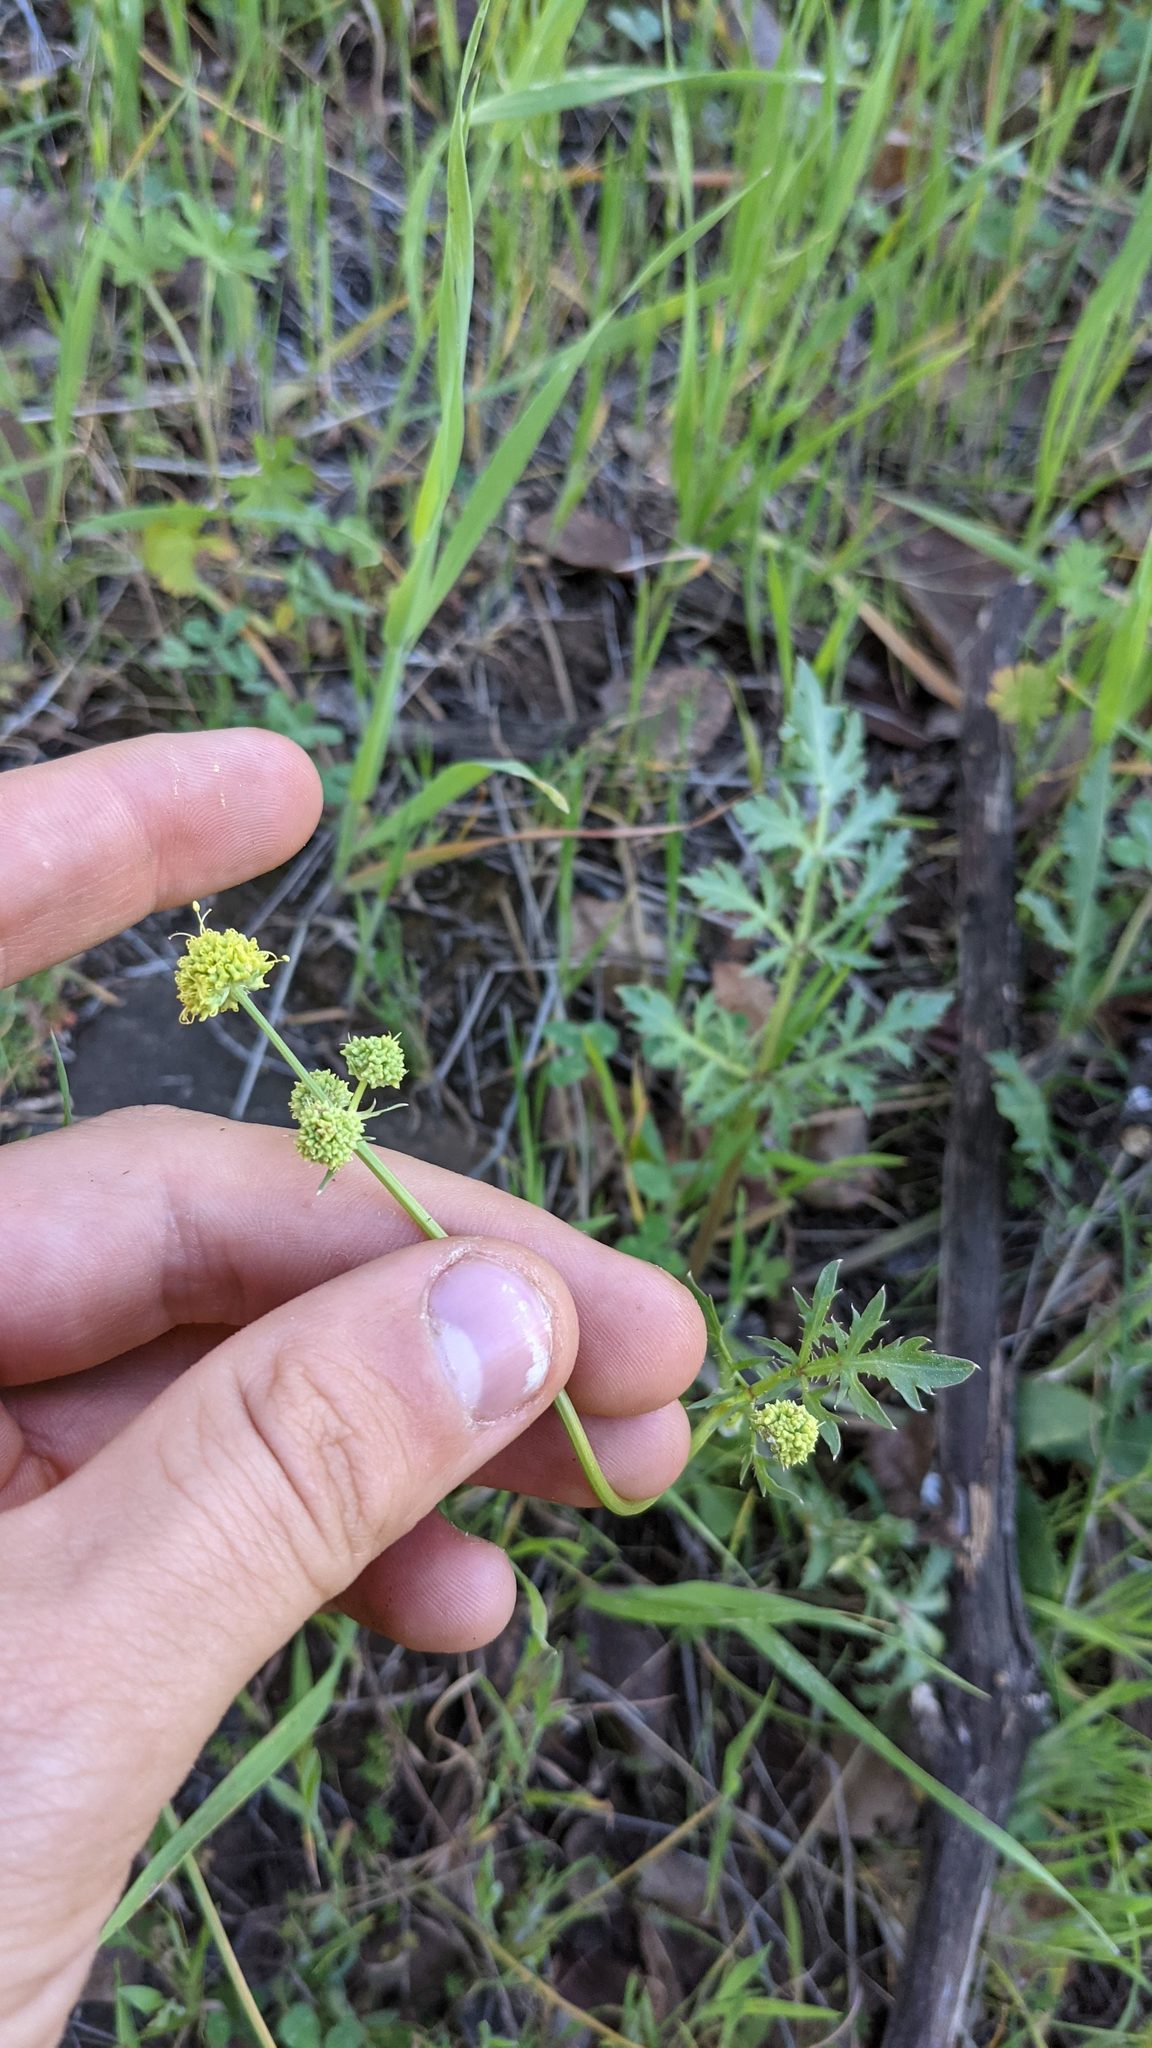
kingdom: Plantae
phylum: Tracheophyta
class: Magnoliopsida
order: Apiales
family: Apiaceae
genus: Sanicula
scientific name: Sanicula bipinnata
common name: Poison sanicle
